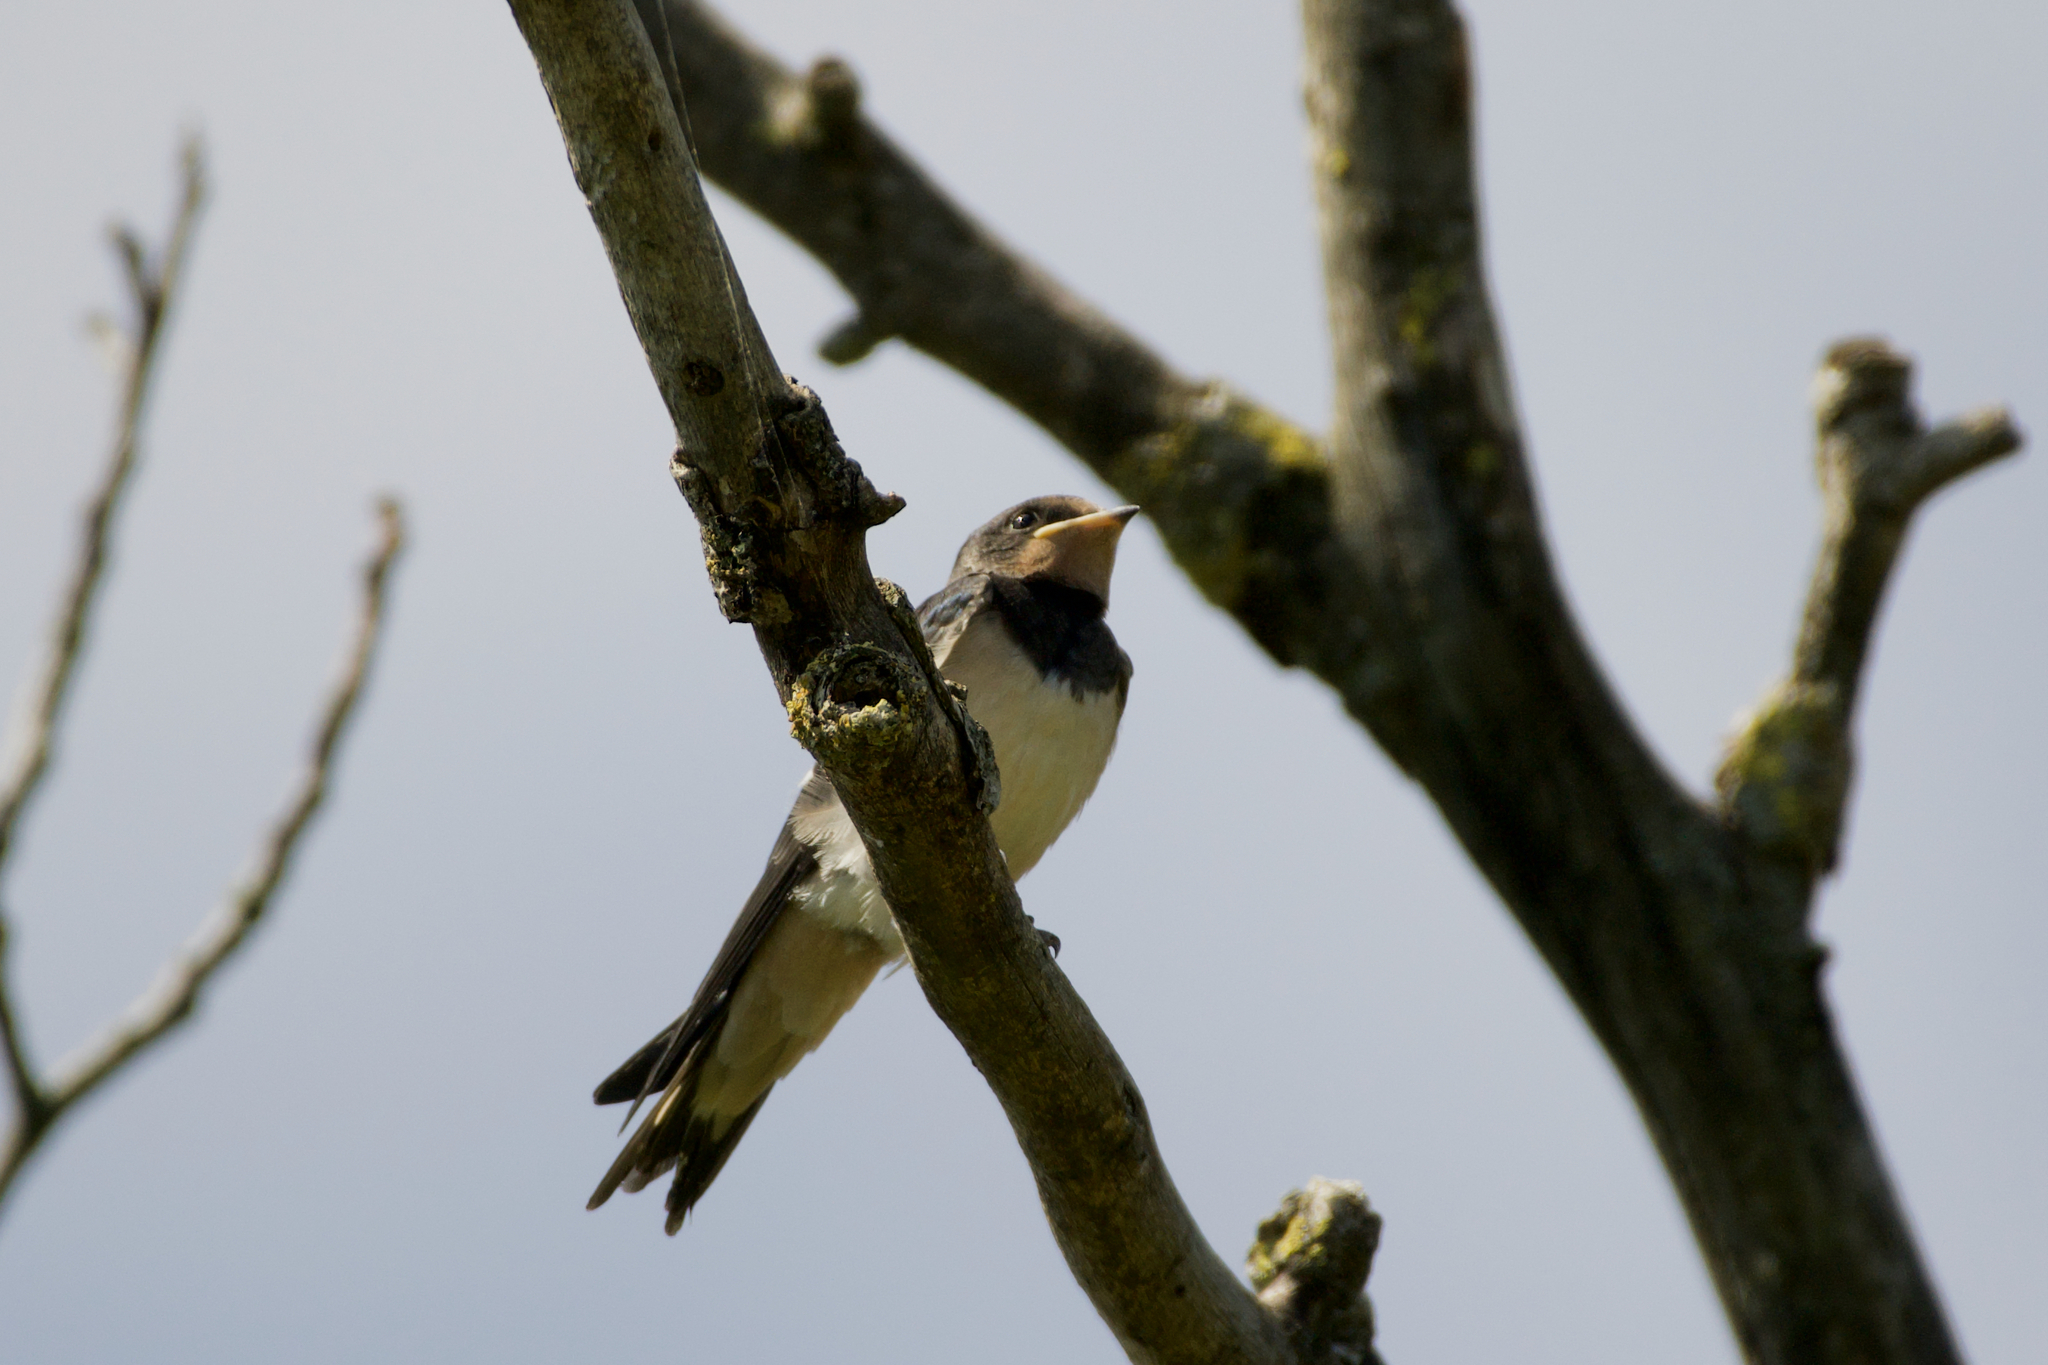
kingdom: Animalia
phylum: Chordata
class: Aves
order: Passeriformes
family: Hirundinidae
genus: Hirundo
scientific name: Hirundo rustica
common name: Barn swallow
